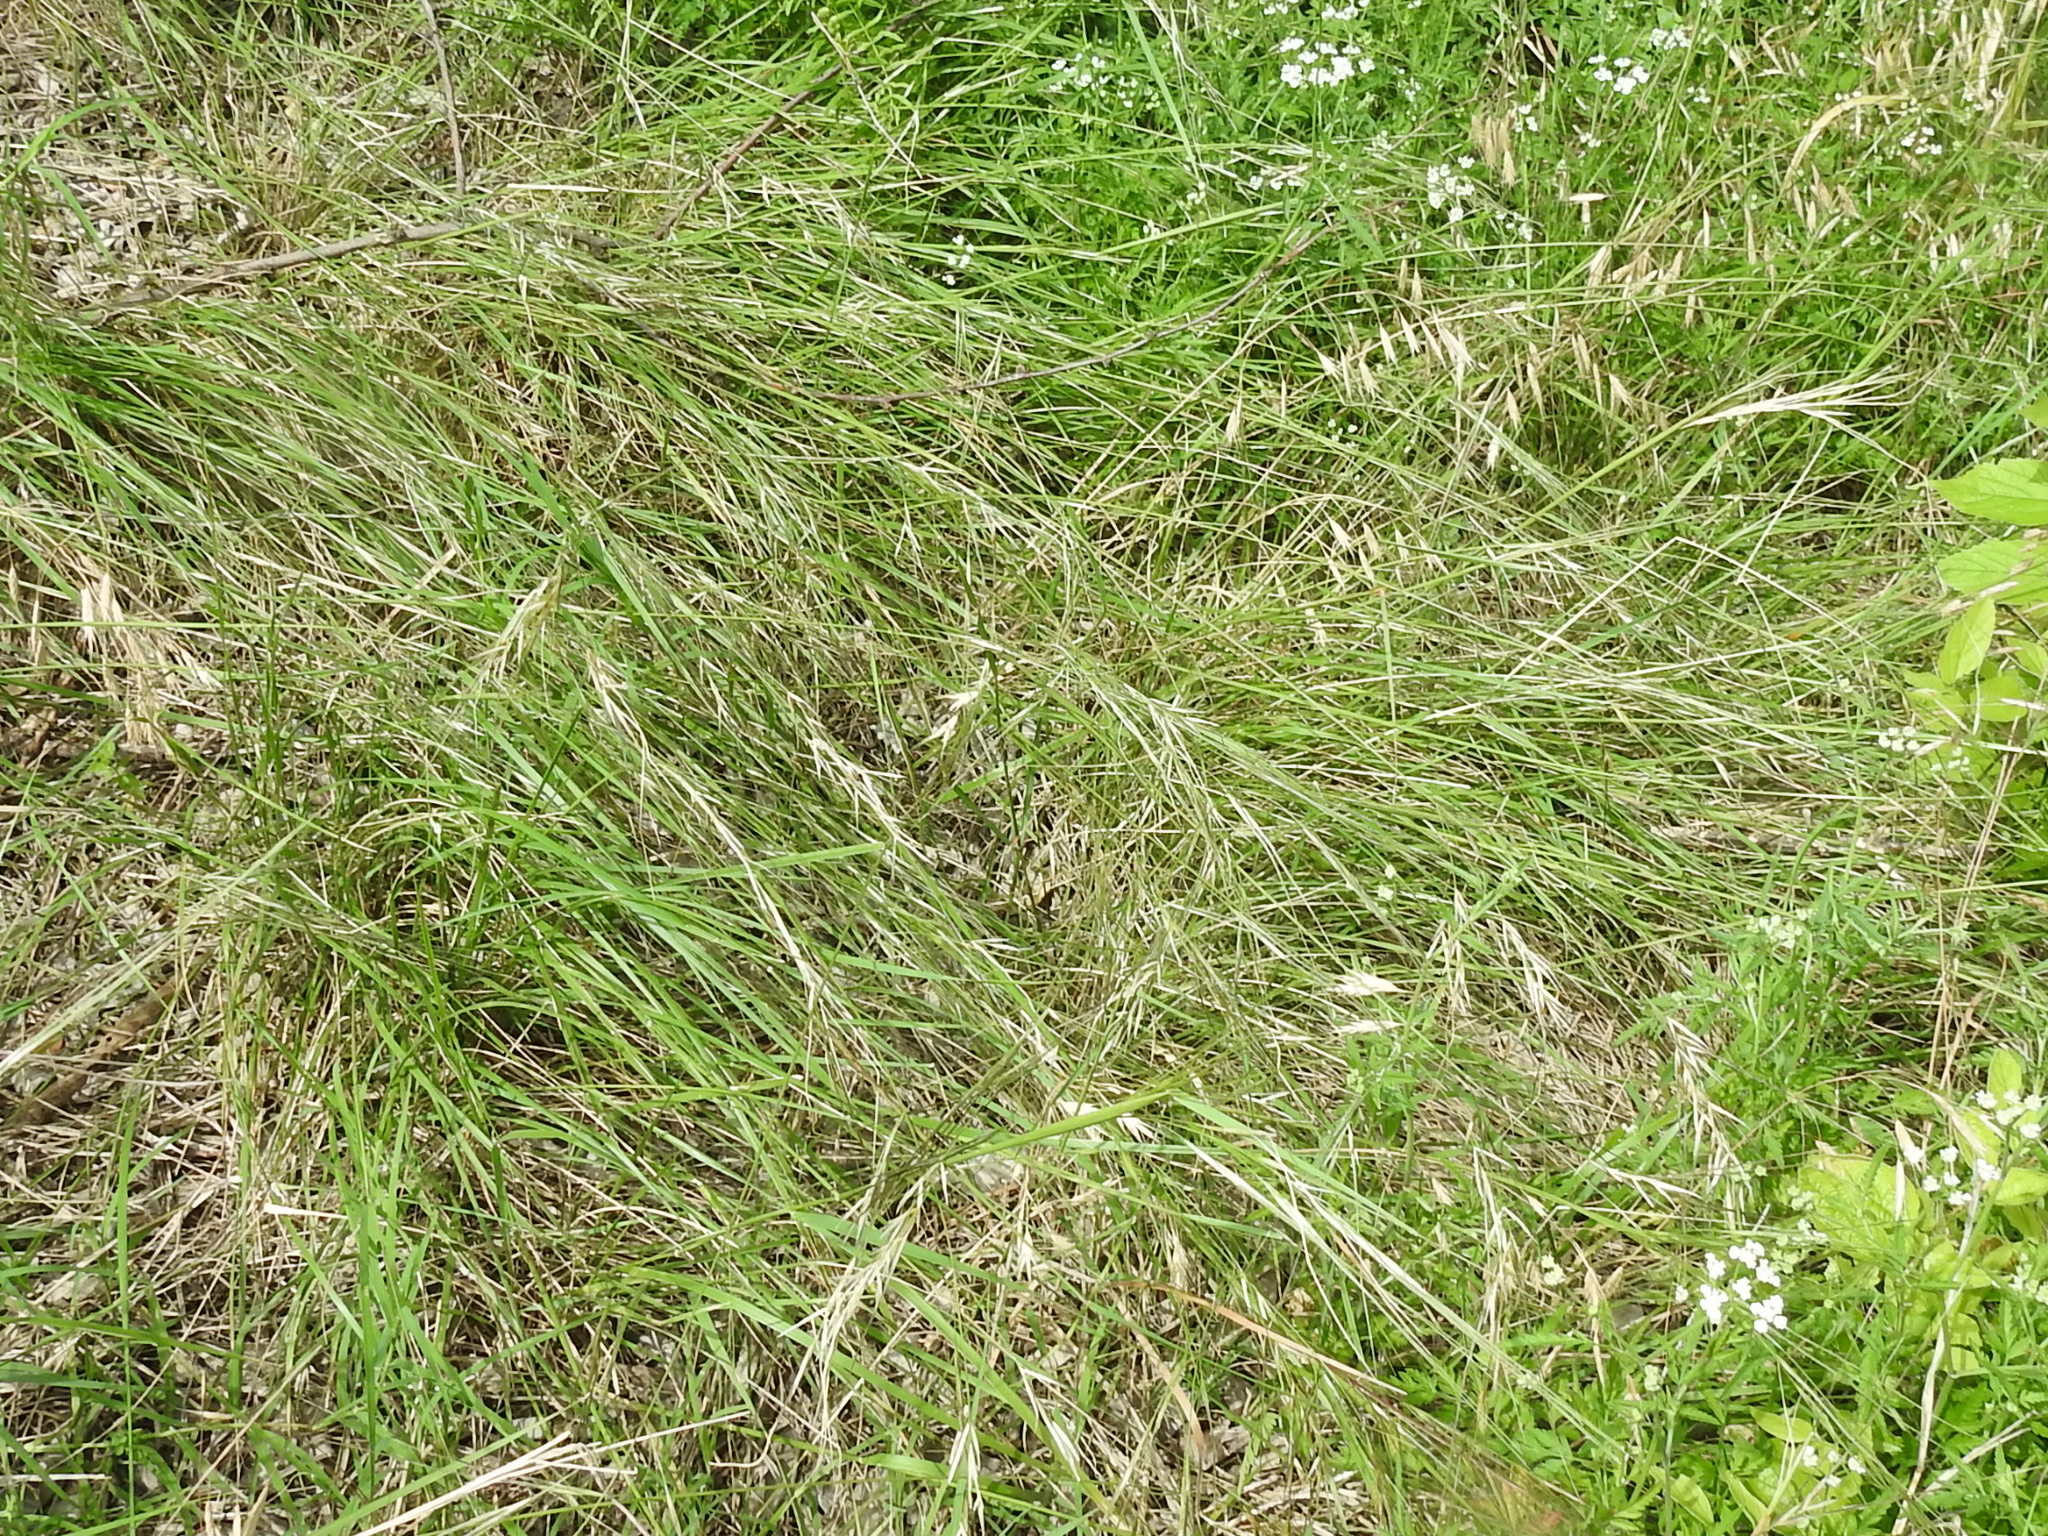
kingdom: Plantae
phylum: Tracheophyta
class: Liliopsida
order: Poales
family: Poaceae
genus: Nassella
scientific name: Nassella leucotricha
